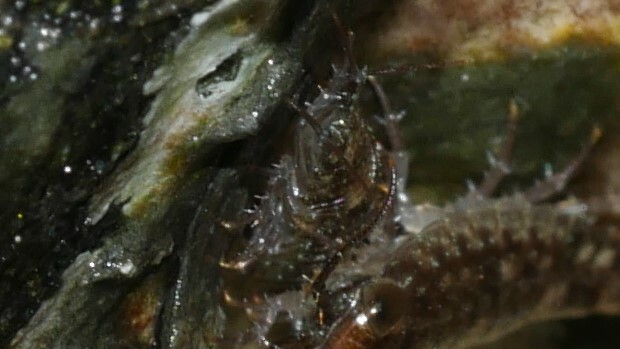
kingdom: Animalia
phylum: Arthropoda
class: Malacostraca
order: Isopoda
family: Ligiidae
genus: Ligia
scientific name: Ligia exotica
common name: Wharf roach
